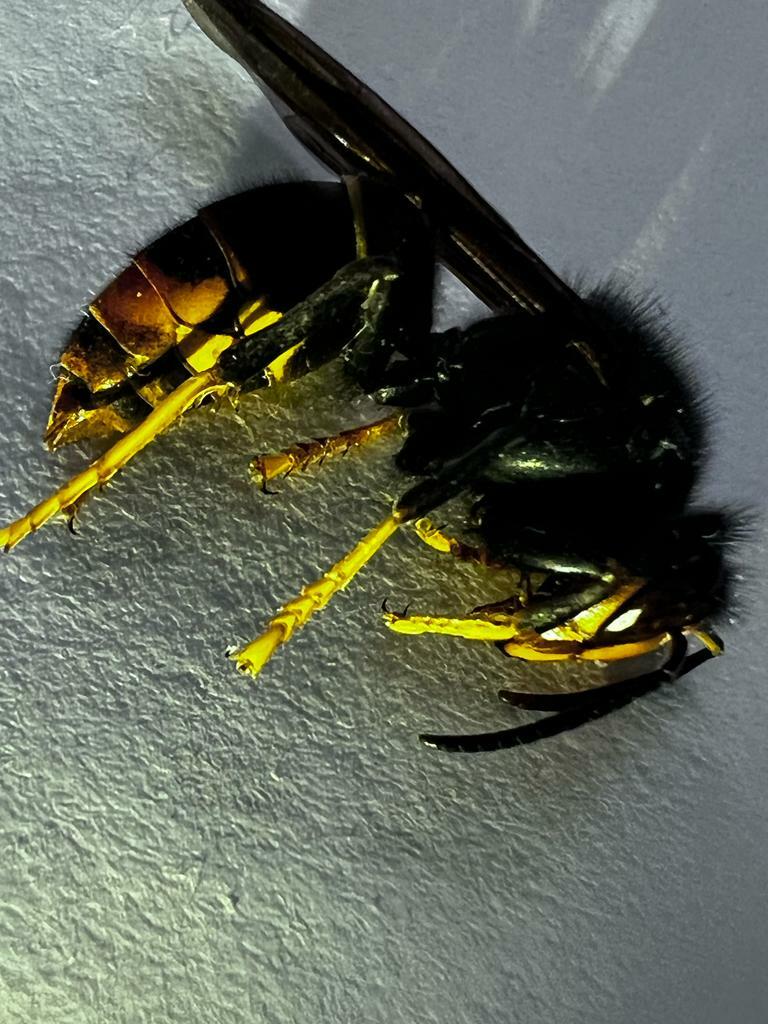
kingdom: Animalia
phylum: Arthropoda
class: Insecta
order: Hymenoptera
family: Vespidae
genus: Vespa
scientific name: Vespa velutina
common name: Asian hornet
